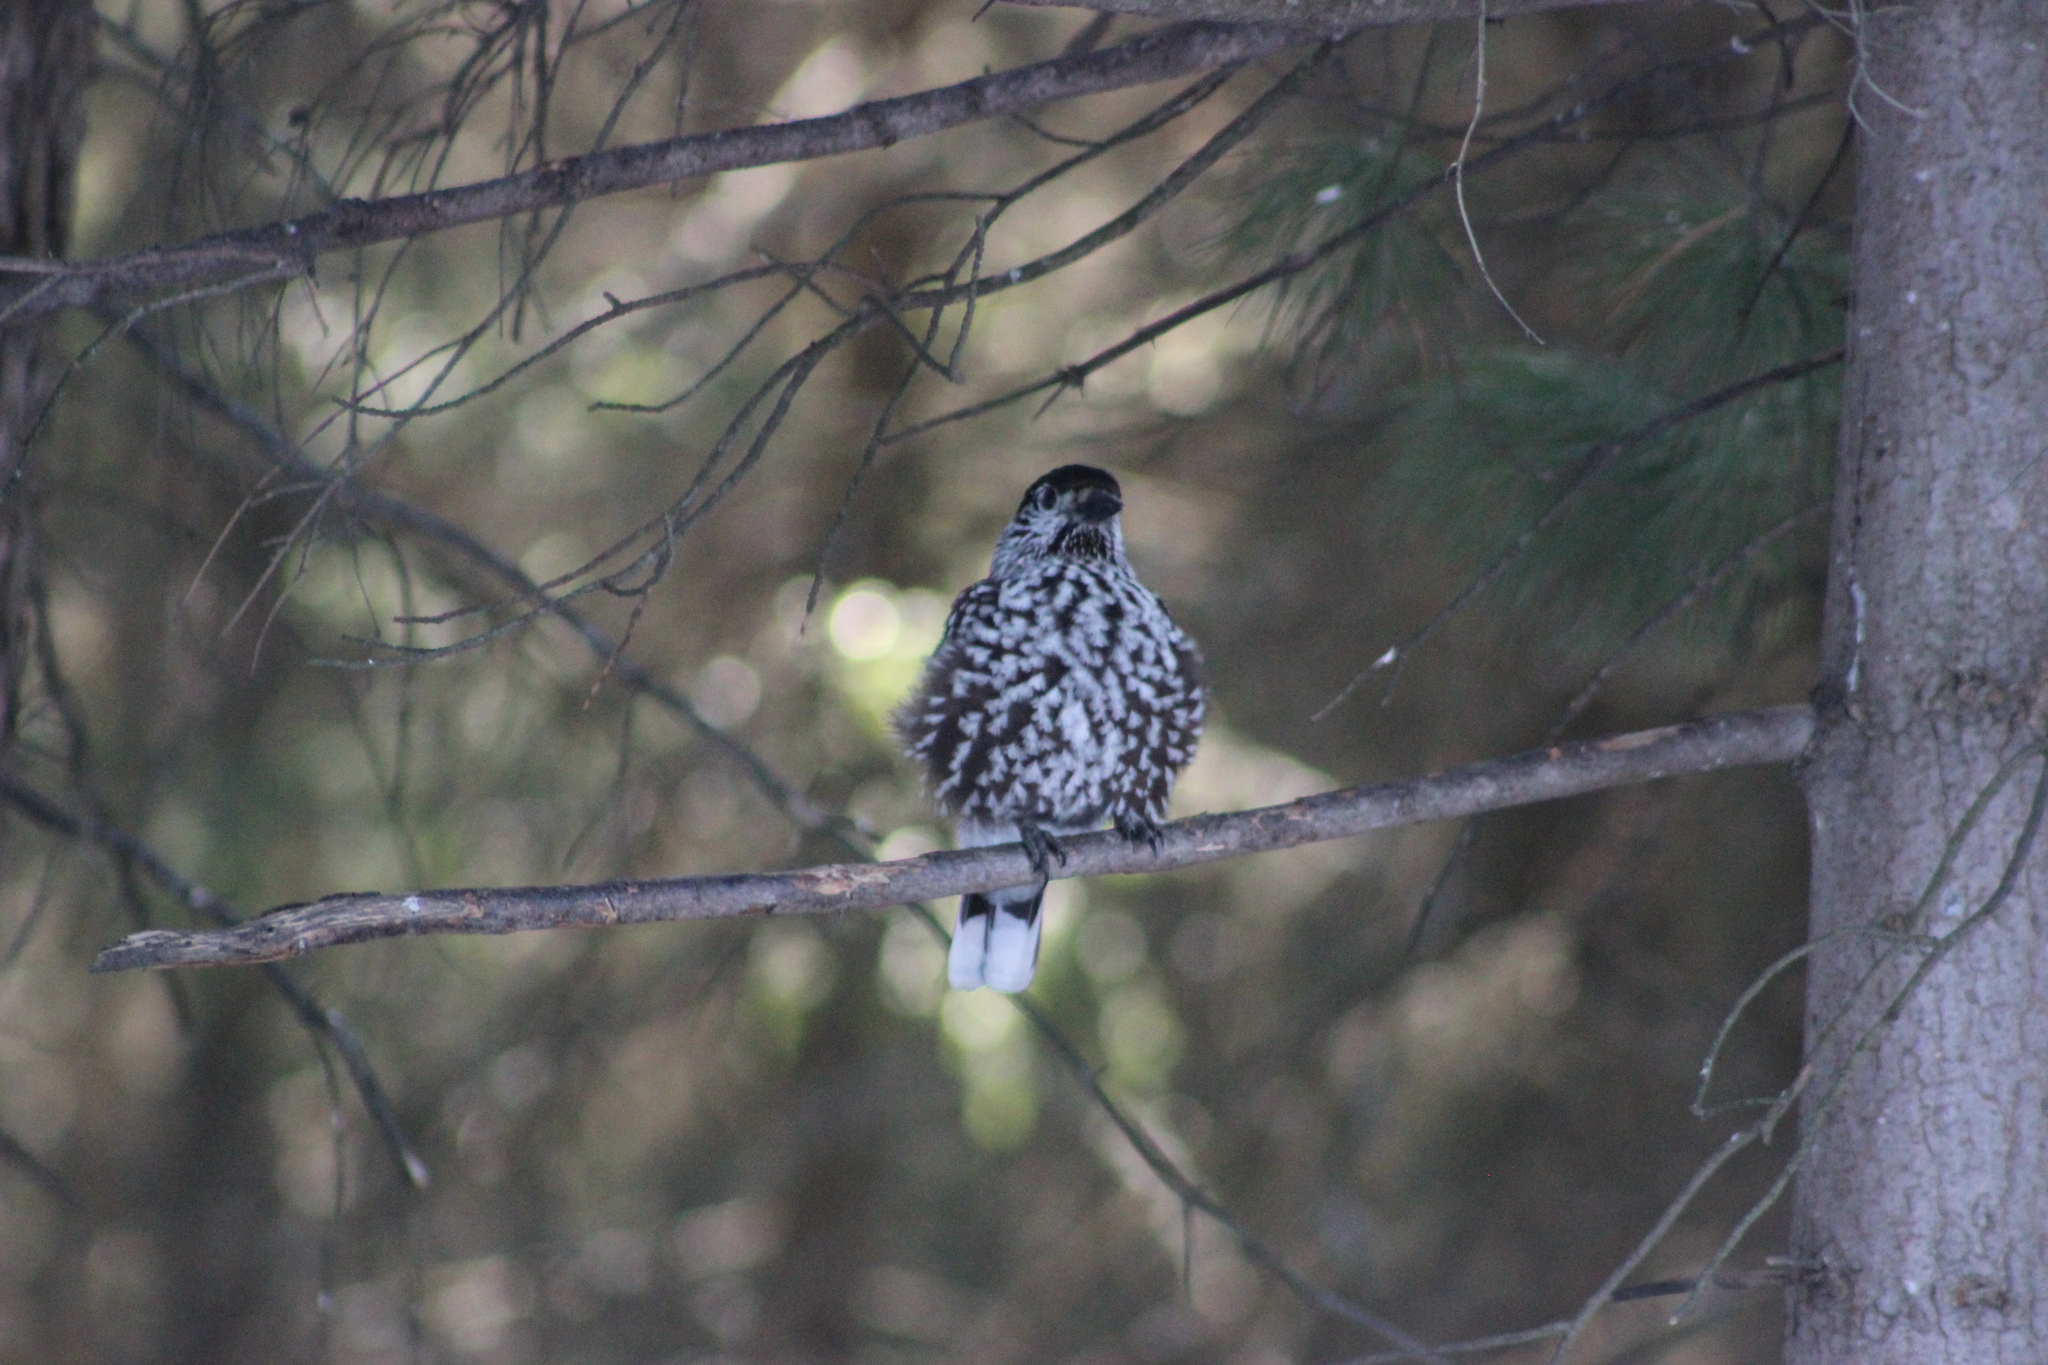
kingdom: Animalia
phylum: Chordata
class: Aves
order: Passeriformes
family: Corvidae
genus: Nucifraga
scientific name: Nucifraga caryocatactes
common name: Spotted nutcracker
